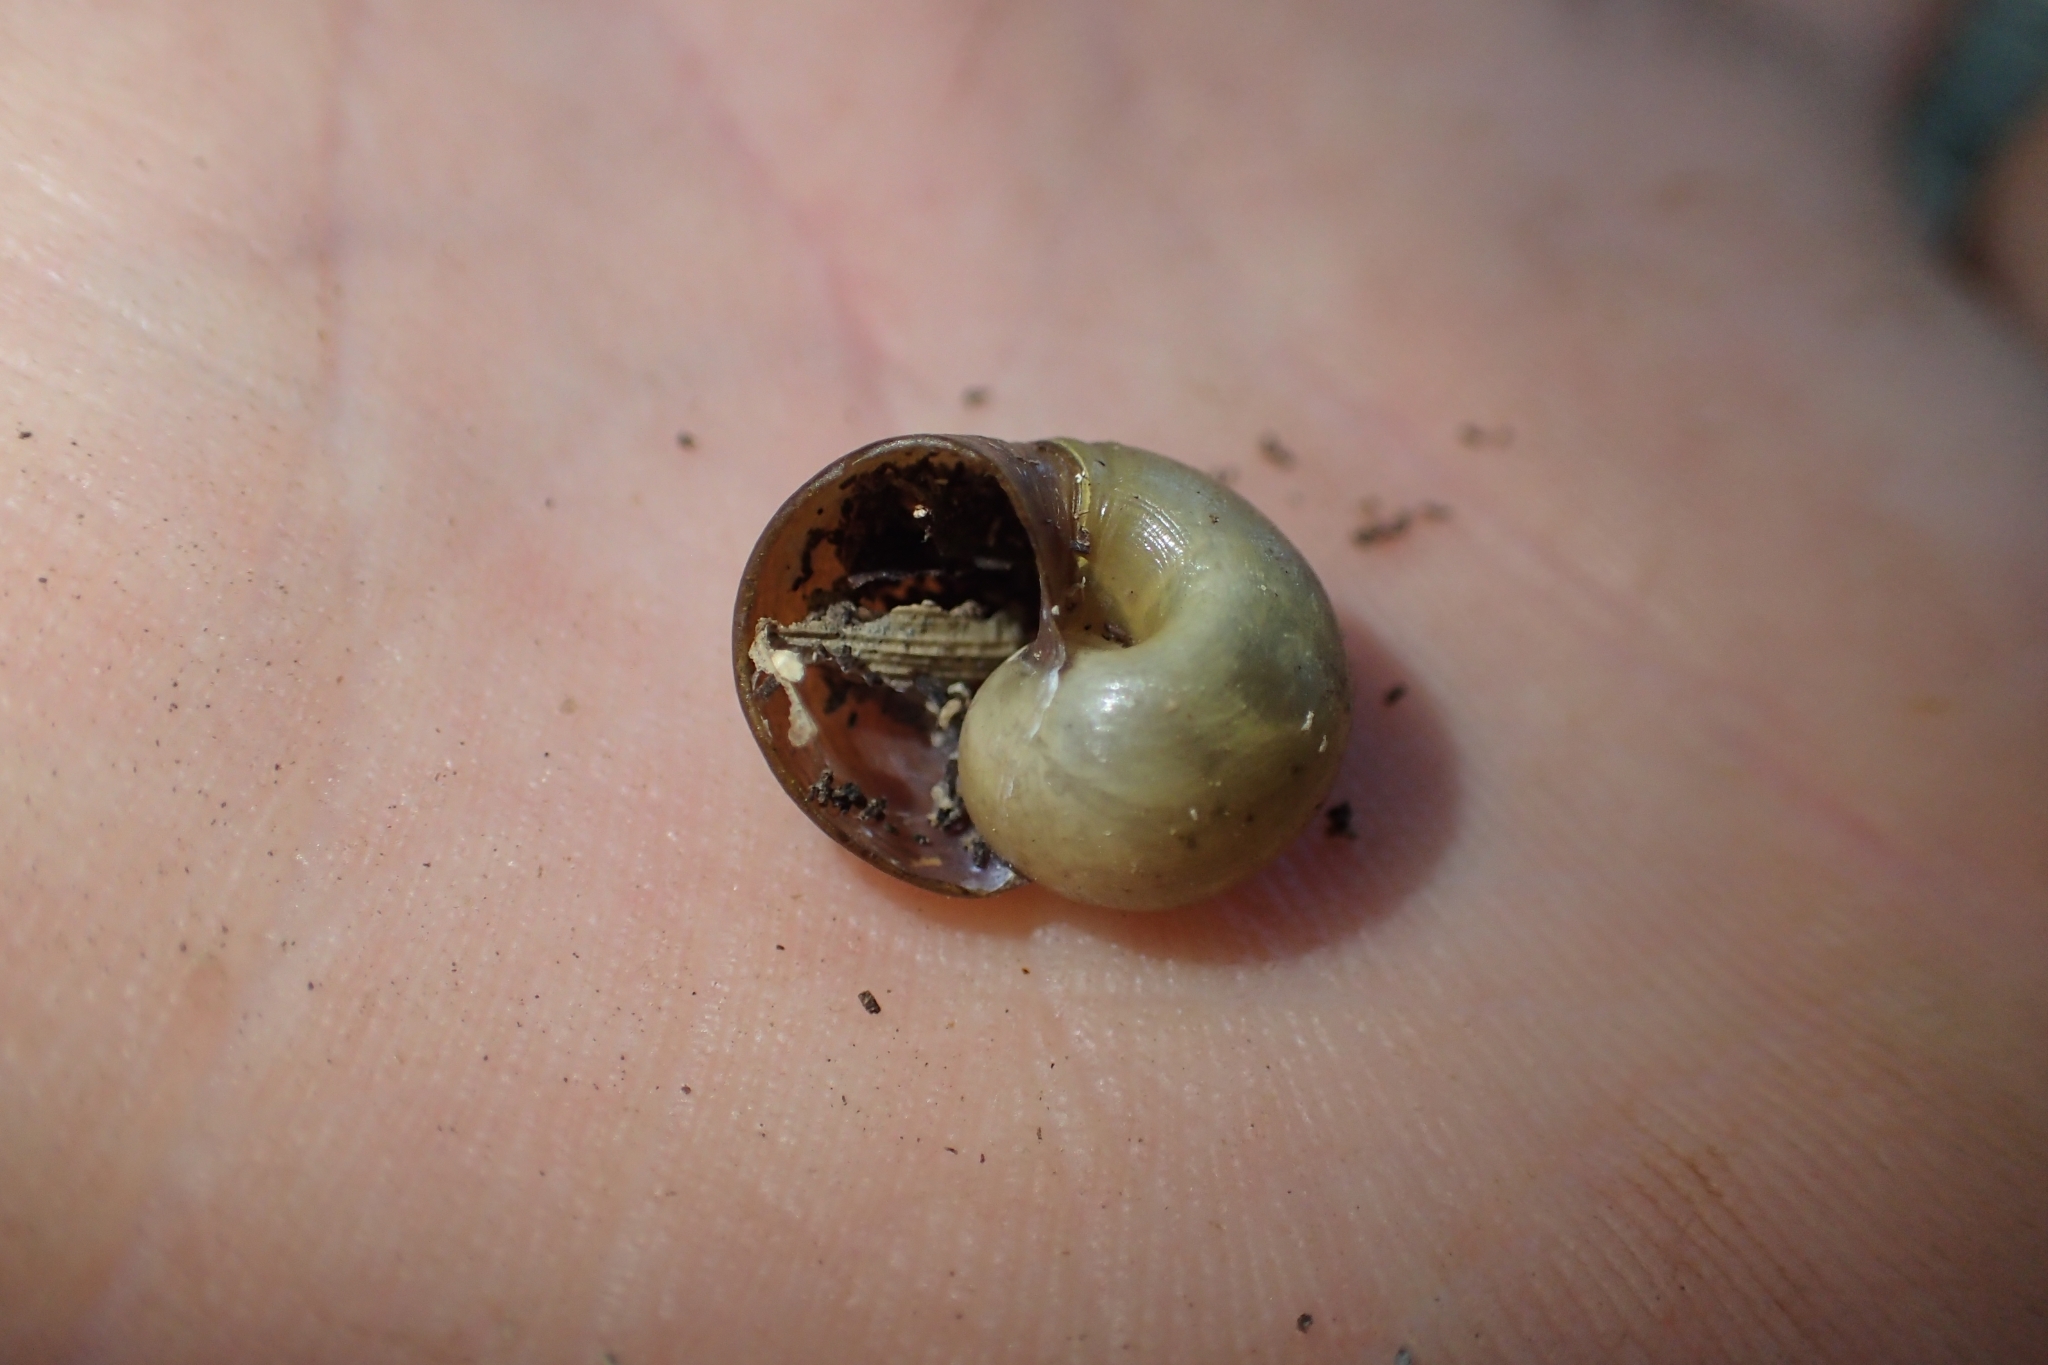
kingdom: Animalia
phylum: Mollusca
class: Gastropoda
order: Stylommatophora
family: Rhytididae
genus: Paryphanta
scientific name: Paryphanta busbyi
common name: Kauri snail
